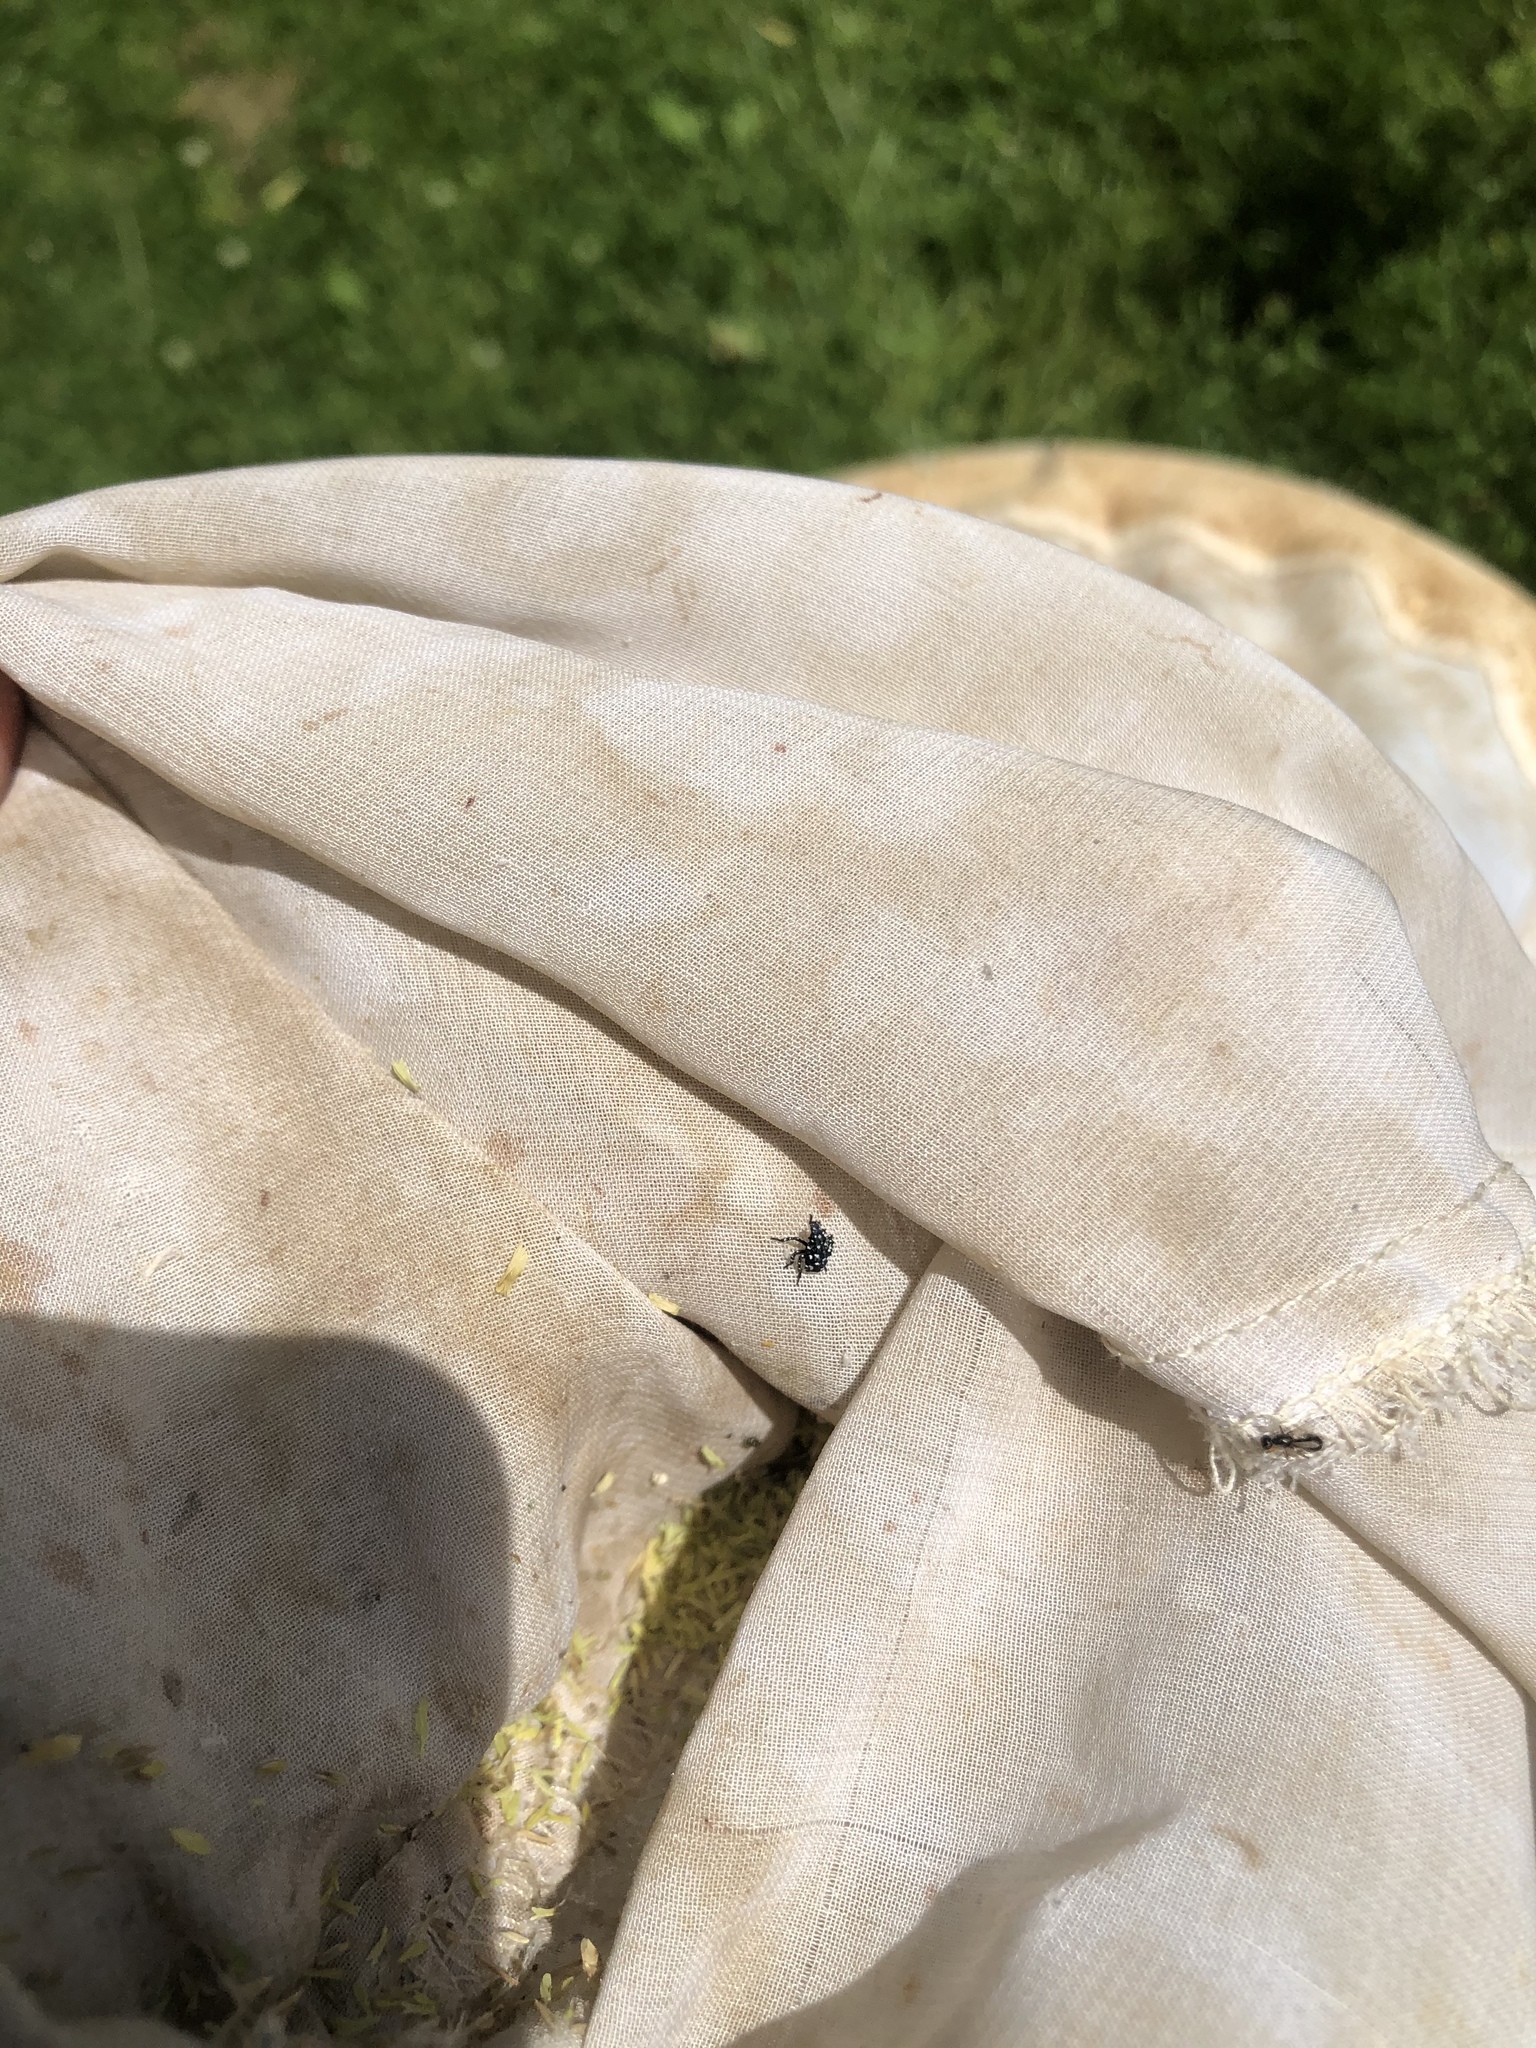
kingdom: Animalia
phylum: Arthropoda
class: Insecta
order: Hemiptera
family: Fulgoridae
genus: Lycorma
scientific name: Lycorma delicatula
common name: Spotted lanternfly
